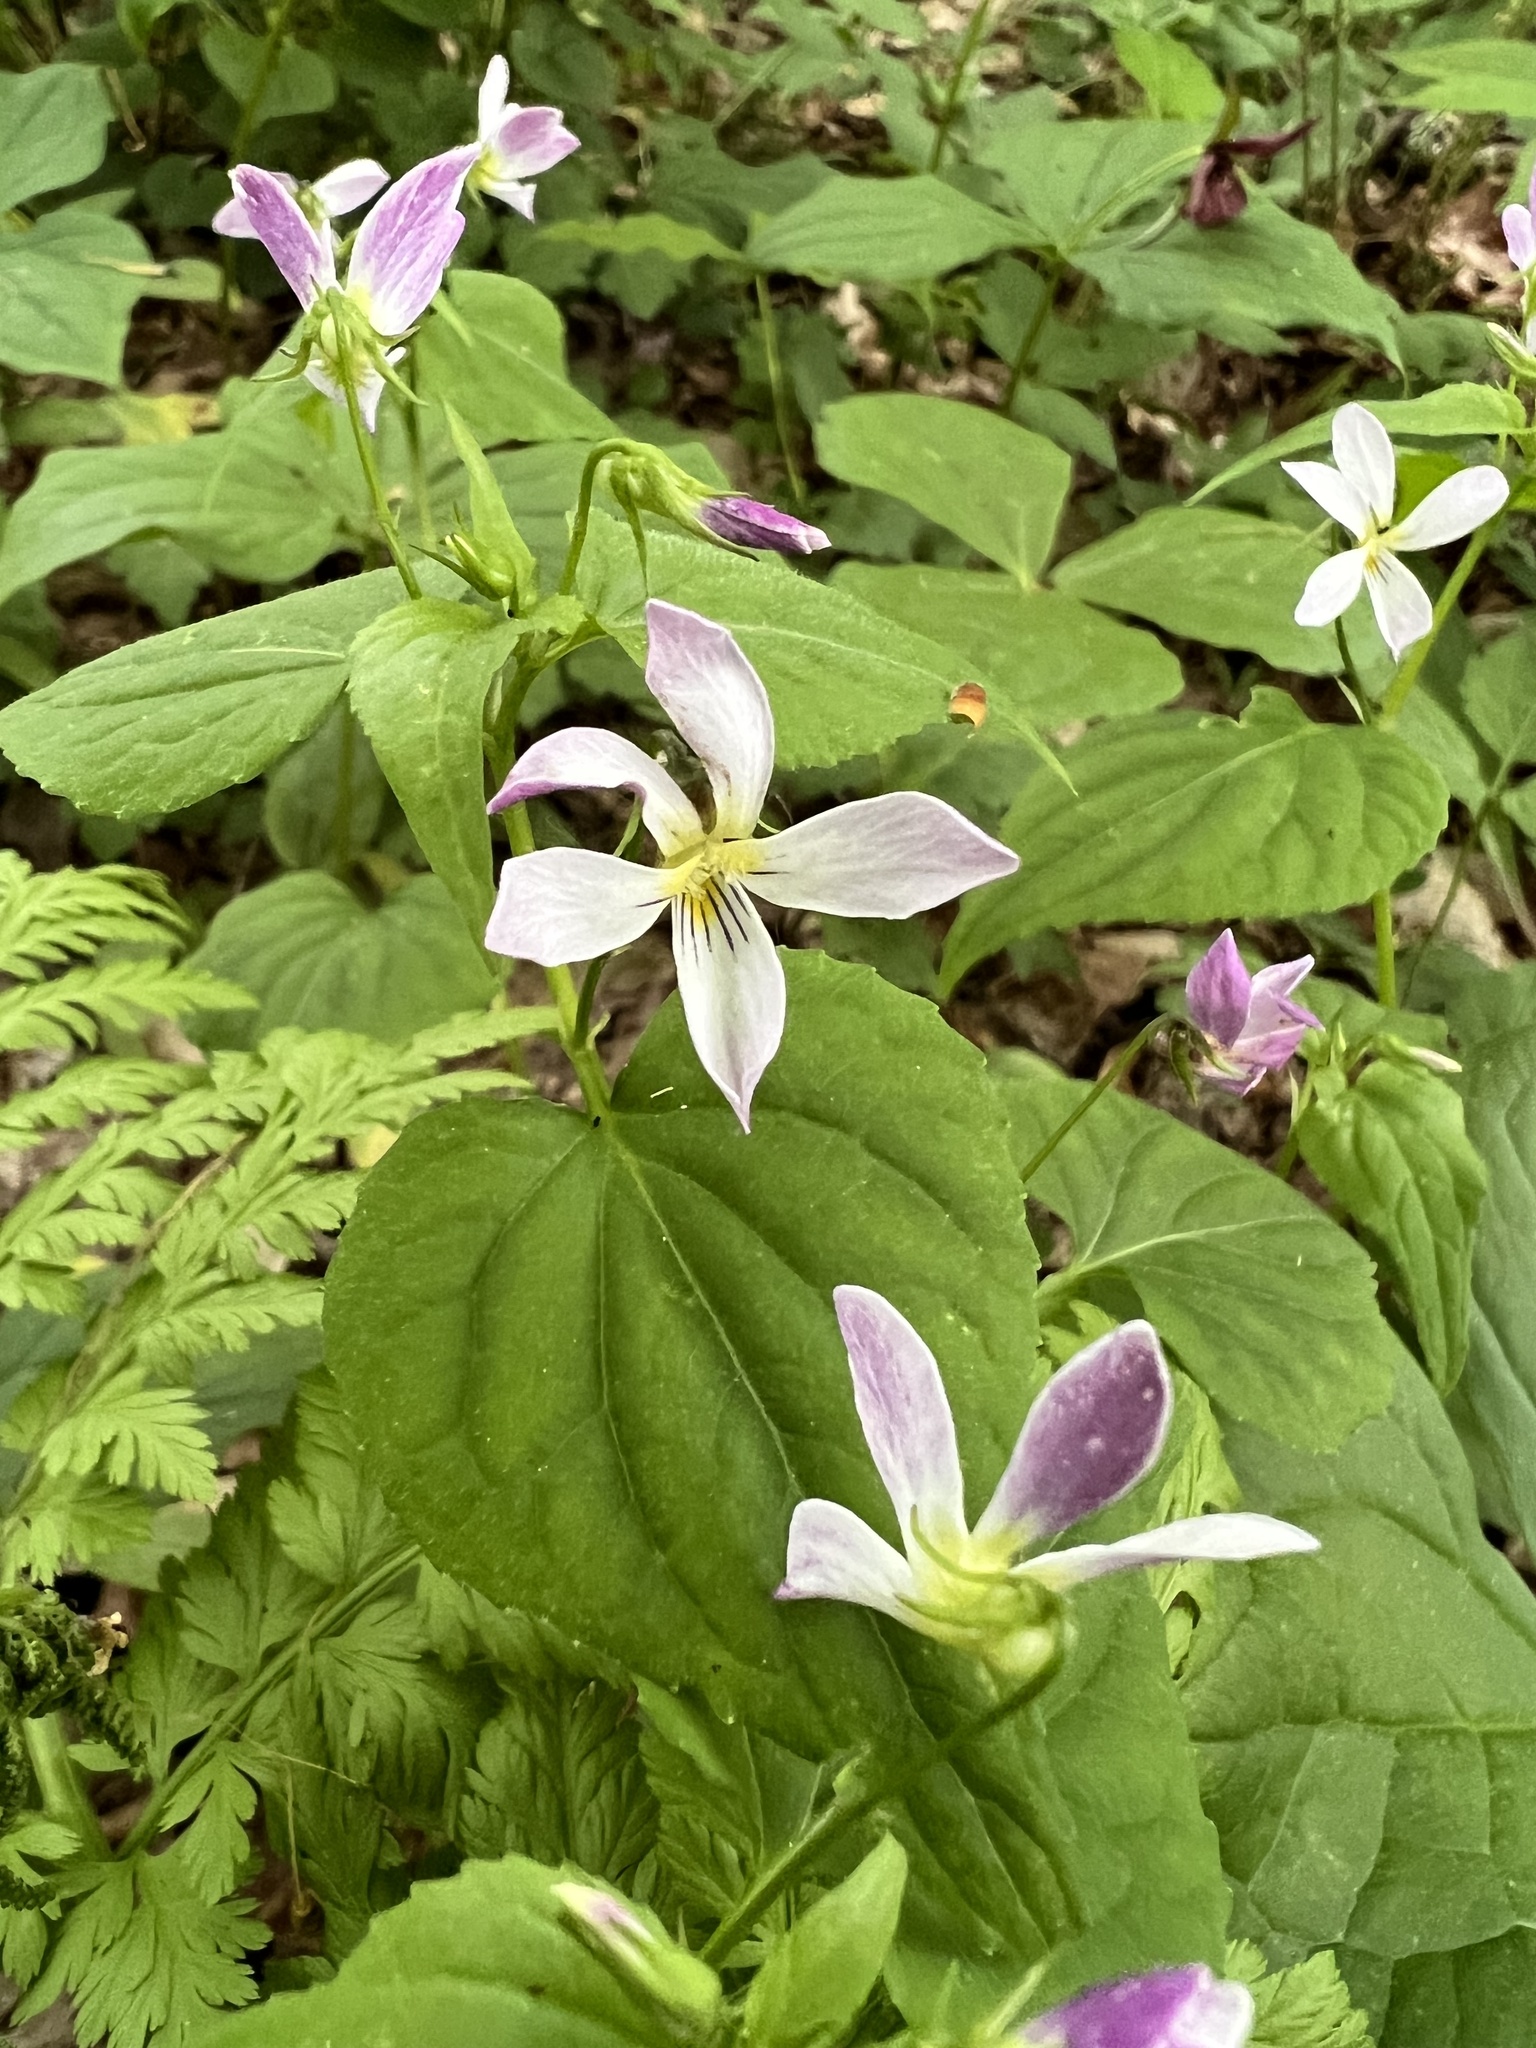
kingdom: Plantae
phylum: Tracheophyta
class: Magnoliopsida
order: Malpighiales
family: Violaceae
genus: Viola
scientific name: Viola canadensis
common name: Canada violet
